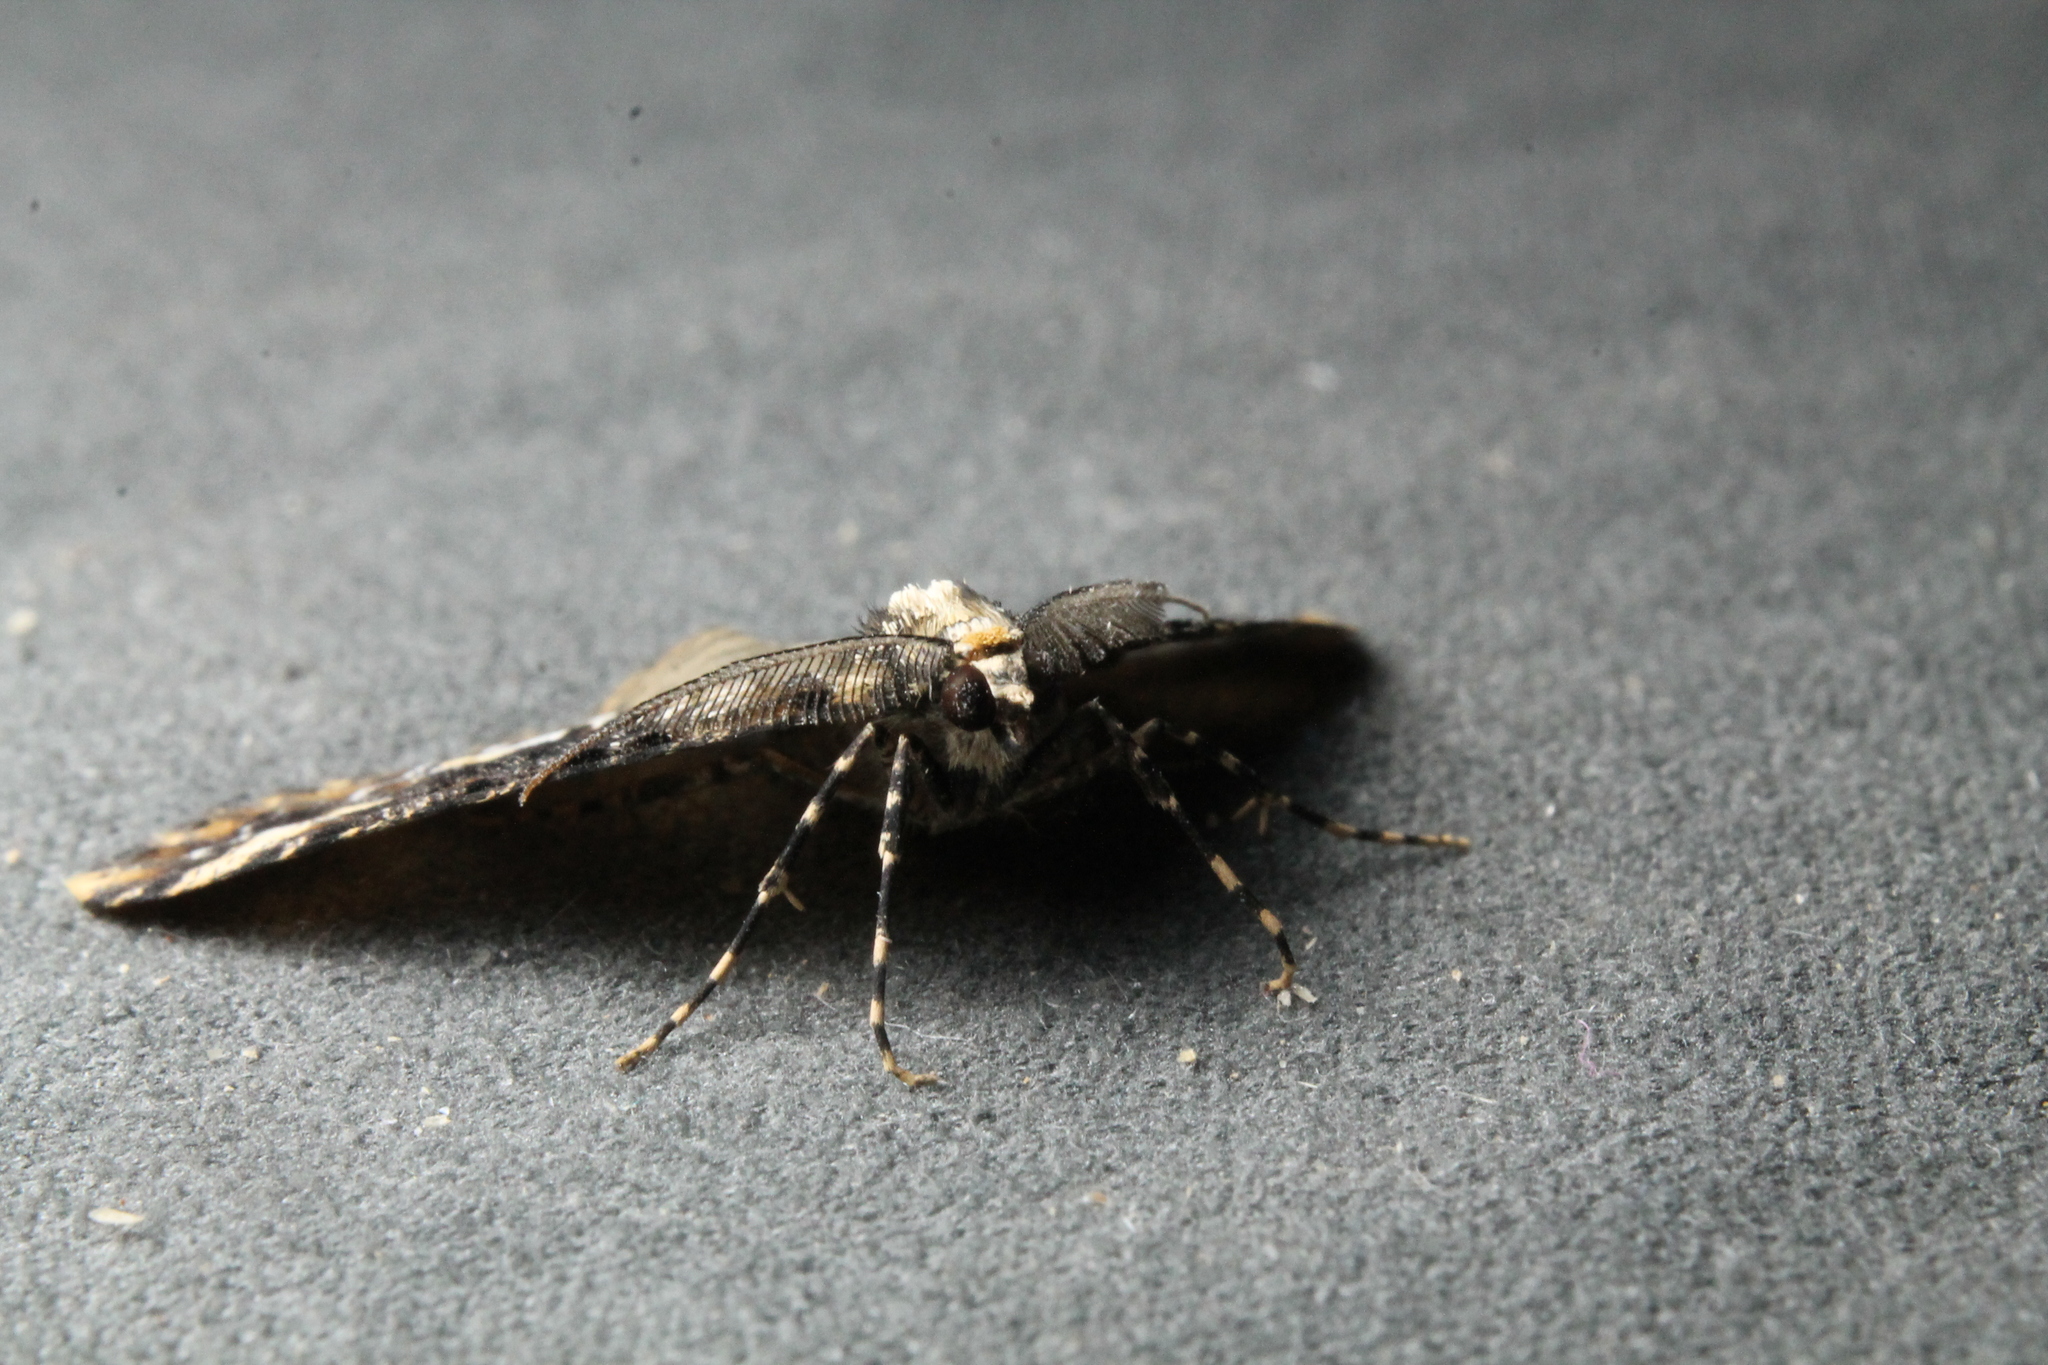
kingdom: Animalia
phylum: Arthropoda
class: Insecta
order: Lepidoptera
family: Geometridae
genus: Pseudocoremia
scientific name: Pseudocoremia leucelaea
